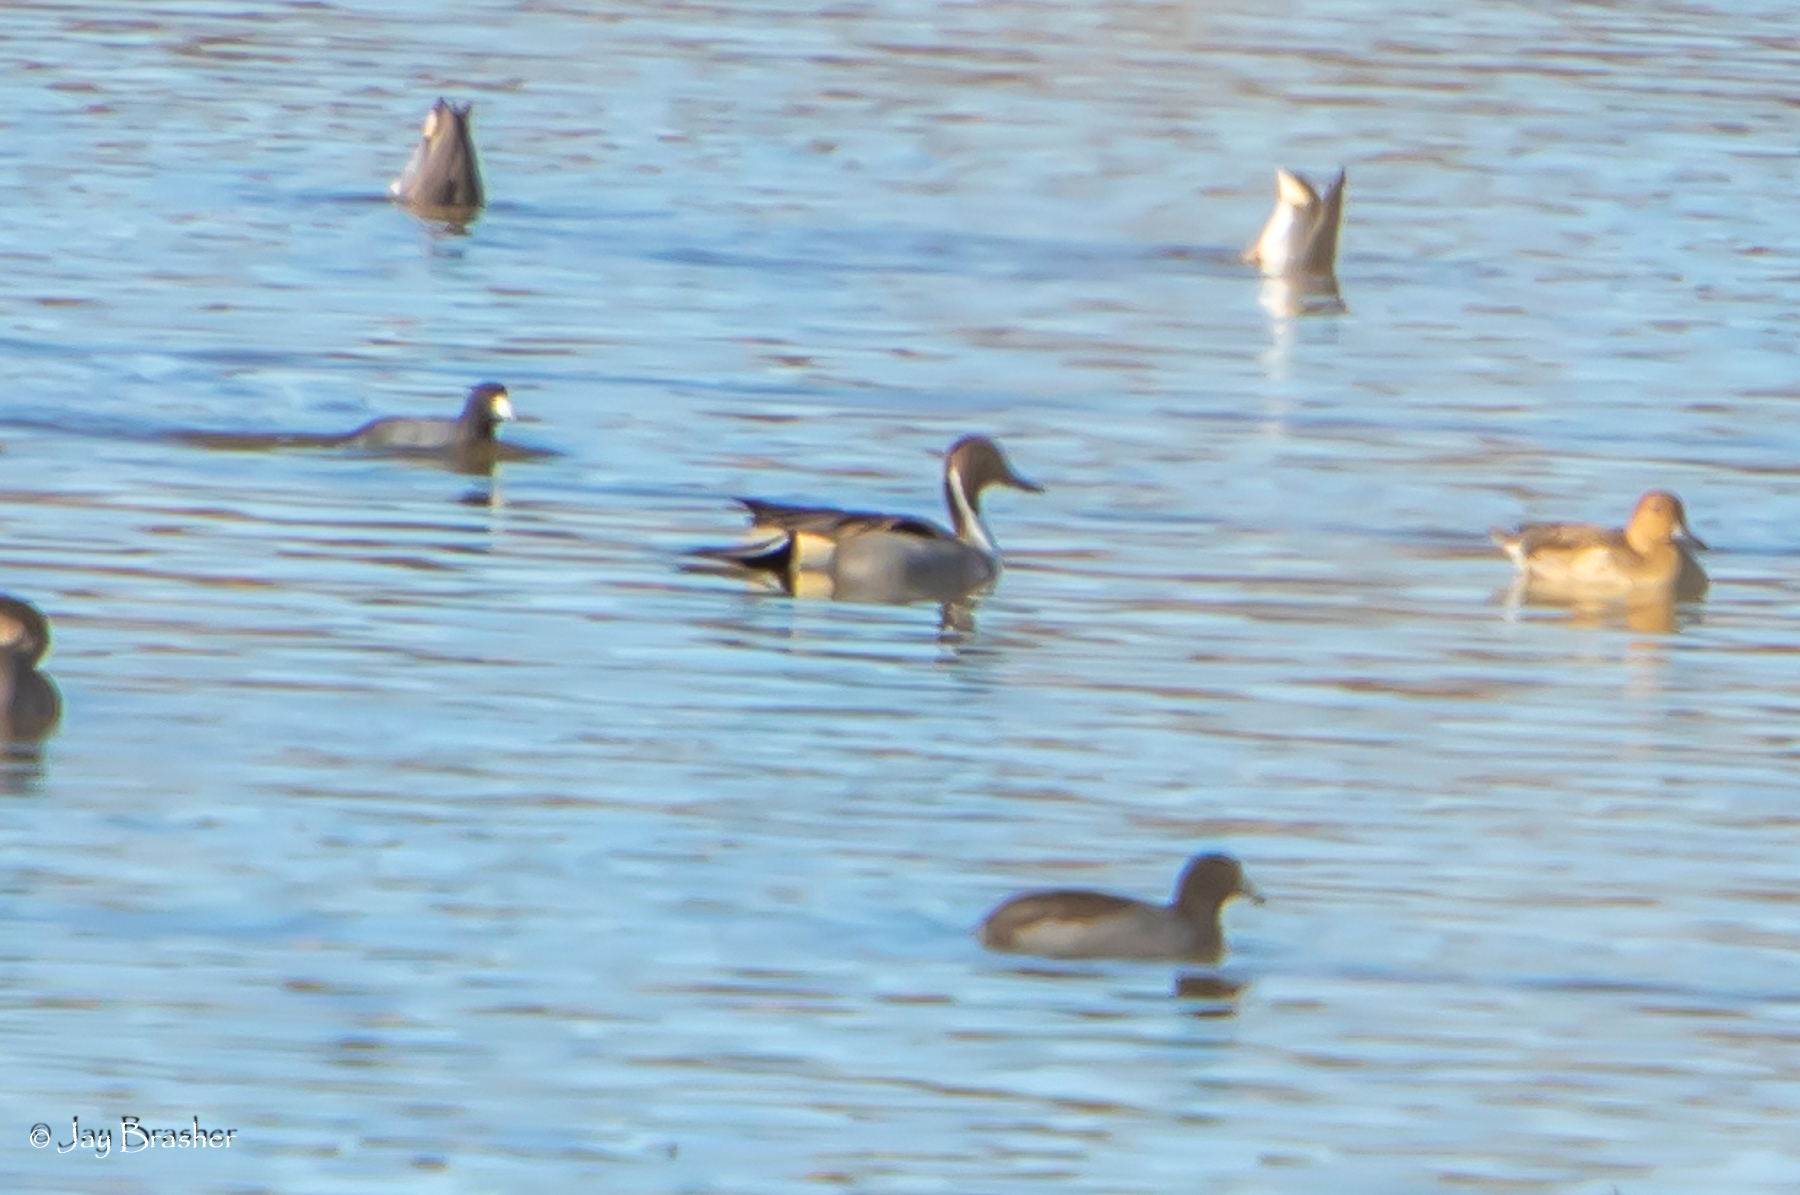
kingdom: Animalia
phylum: Chordata
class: Aves
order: Anseriformes
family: Anatidae
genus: Anas
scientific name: Anas acuta
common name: Northern pintail
